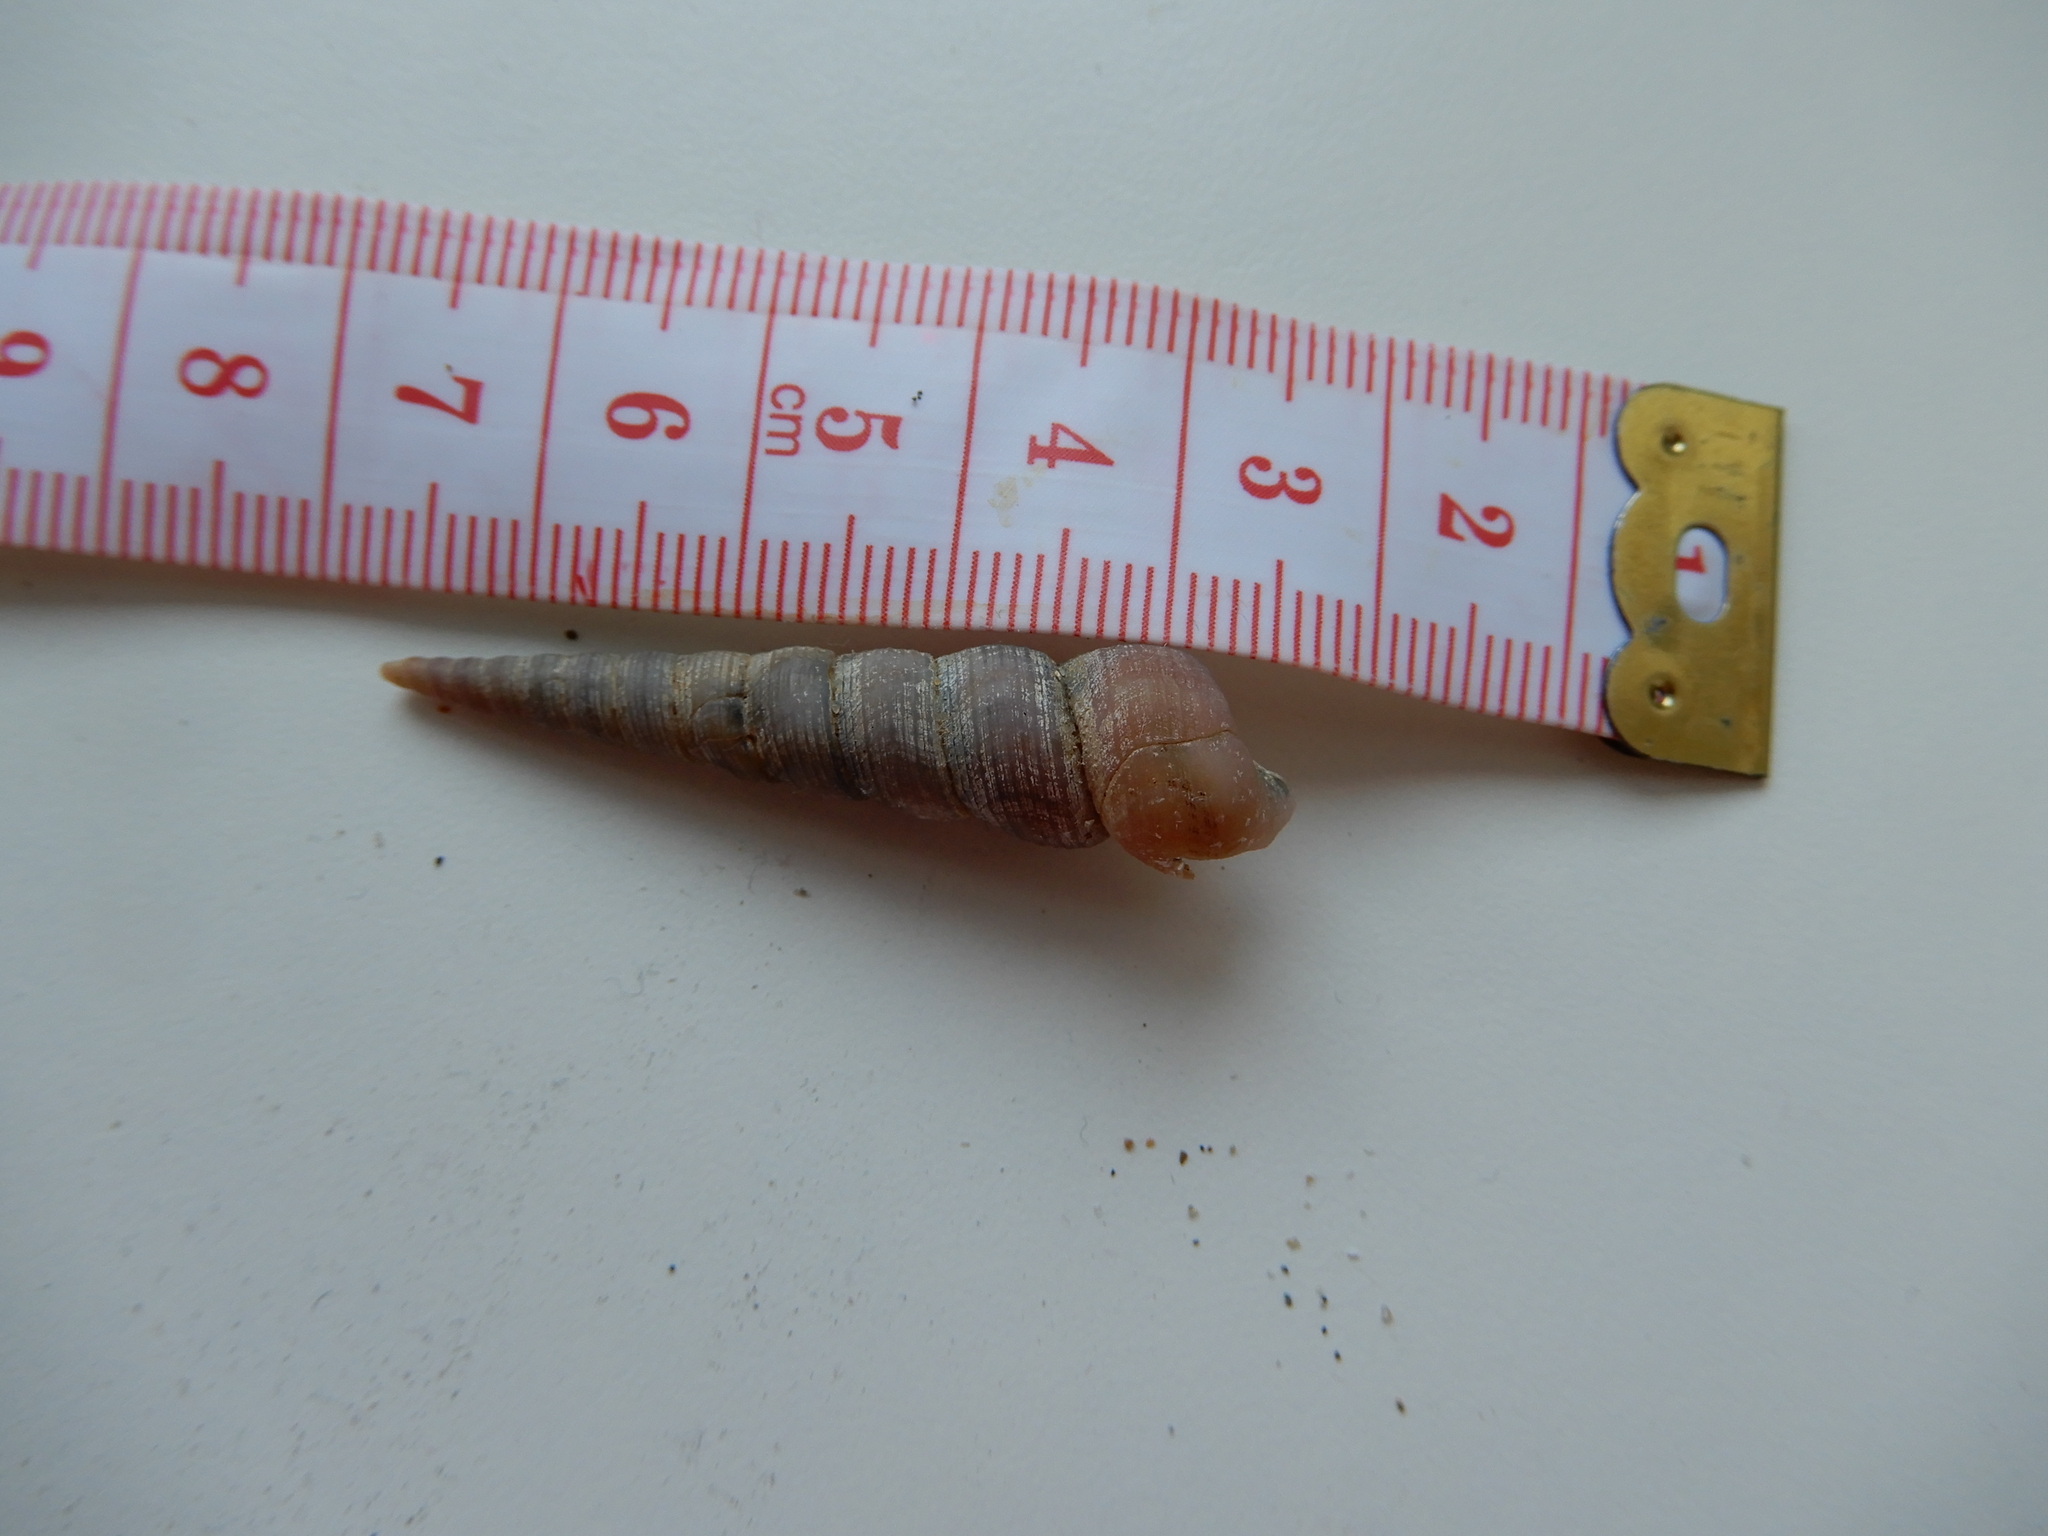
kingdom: Animalia
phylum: Mollusca
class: Gastropoda
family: Turritellidae
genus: Turritellinella
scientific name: Turritellinella tricarinata
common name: Auger shell
